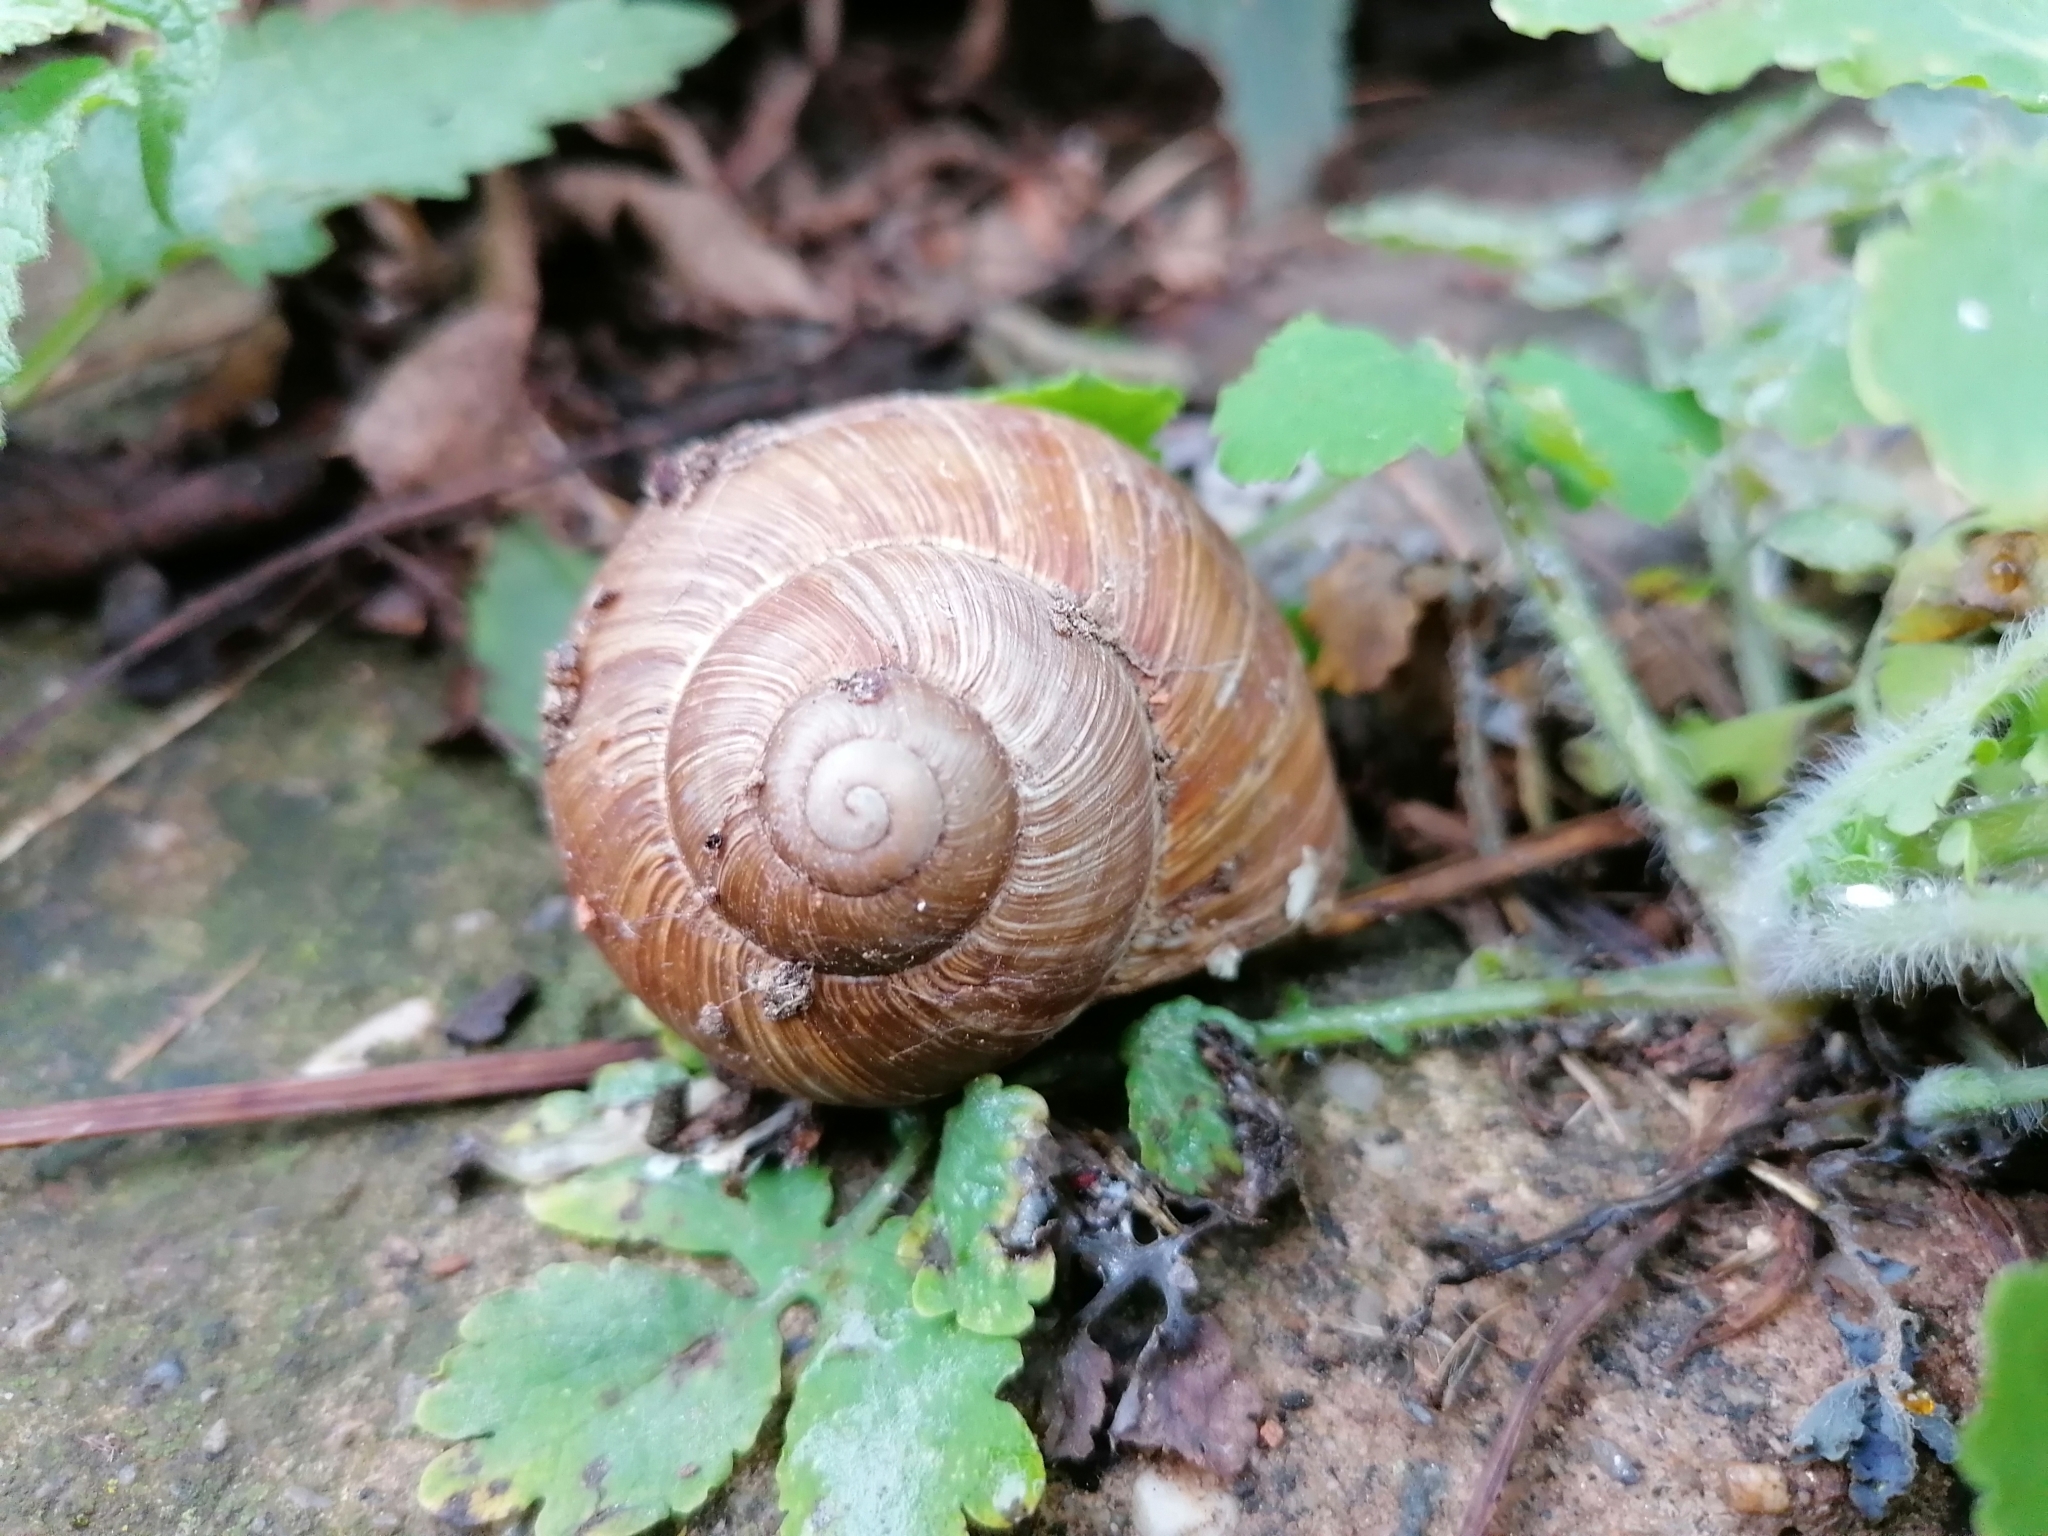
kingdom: Animalia
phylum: Mollusca
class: Gastropoda
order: Stylommatophora
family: Helicidae
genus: Helix
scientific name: Helix pomatia
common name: Roman snail
